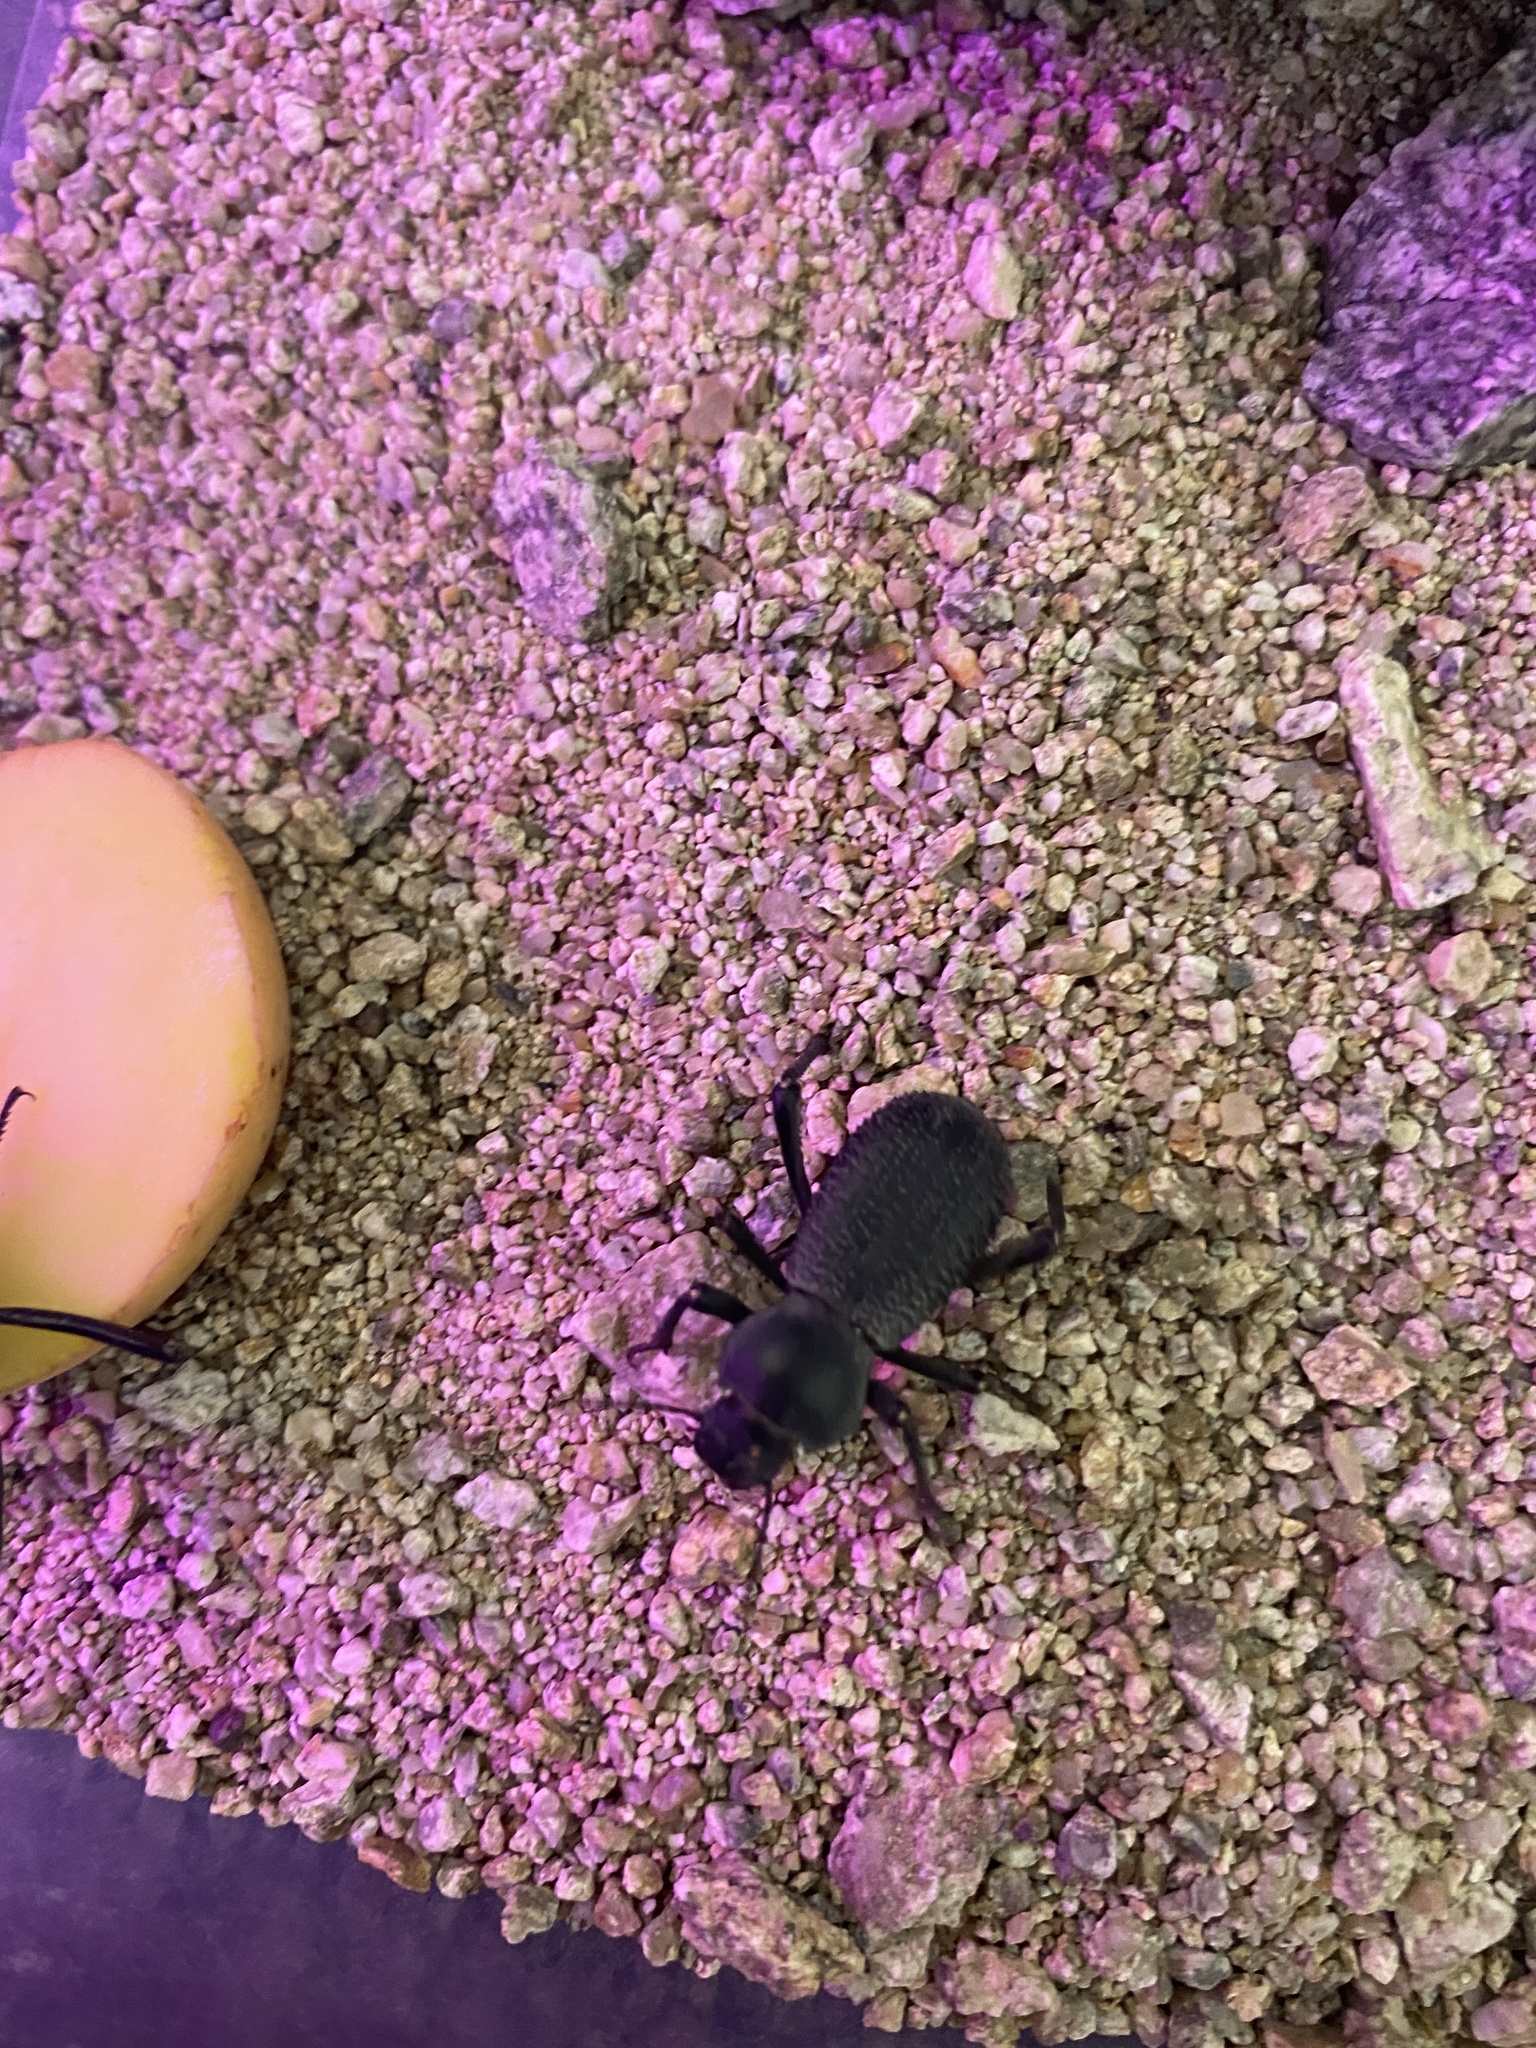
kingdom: Animalia
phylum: Arthropoda
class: Insecta
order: Coleoptera
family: Tenebrionidae
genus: Cryptoglossa
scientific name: Cryptoglossa muricata
